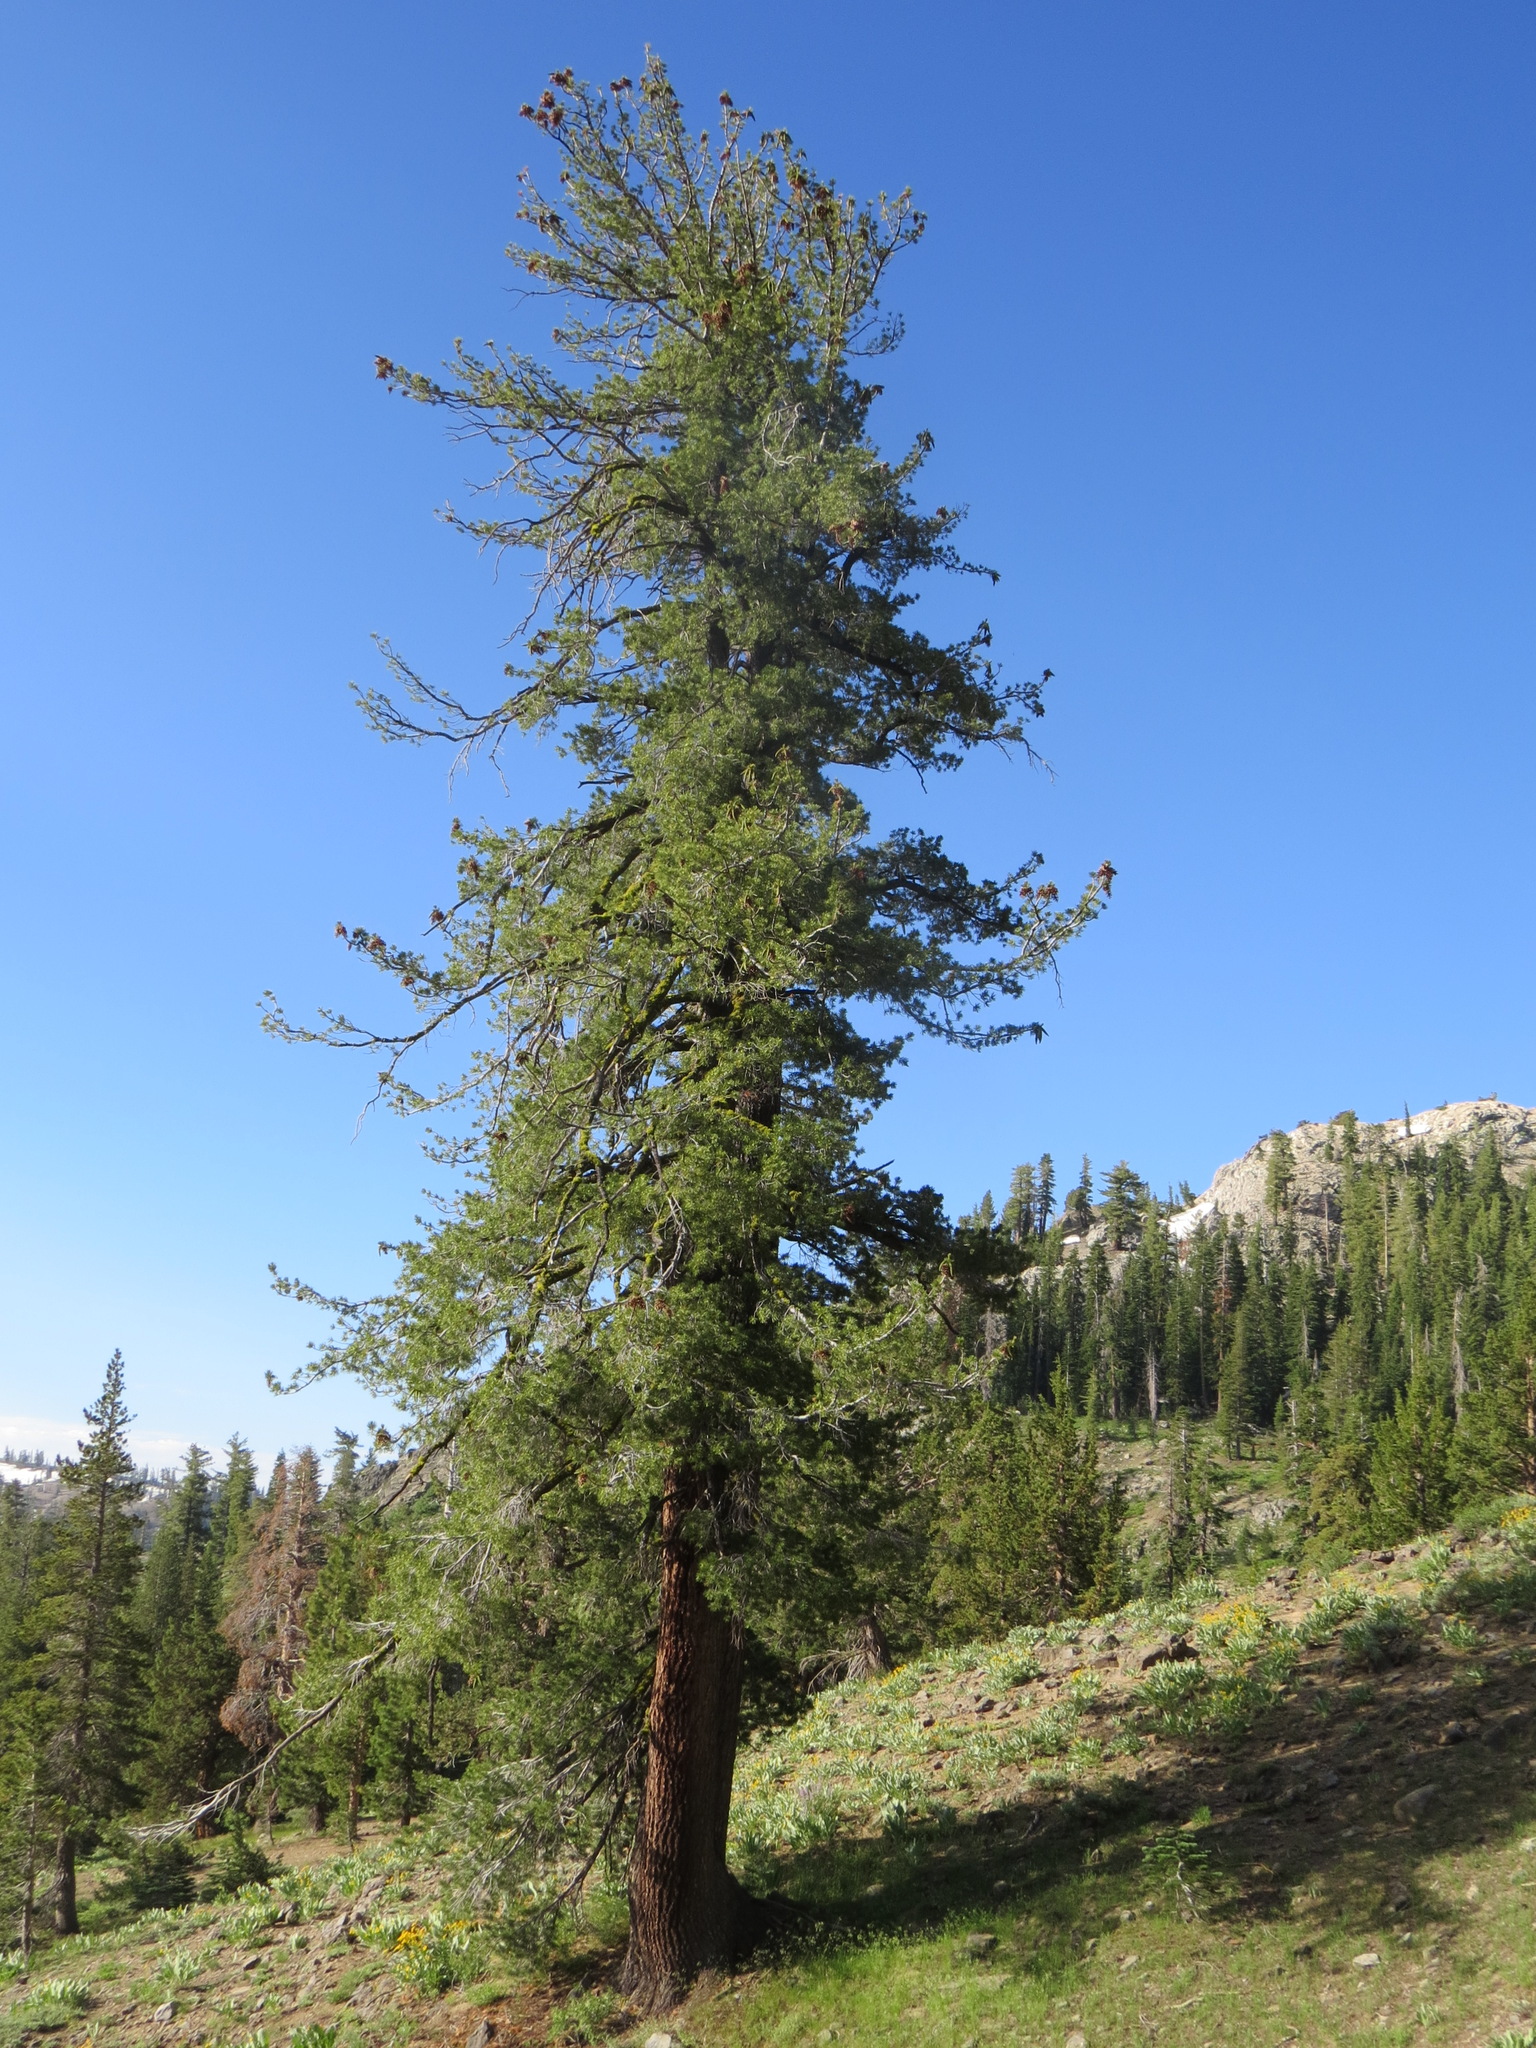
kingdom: Plantae
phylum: Tracheophyta
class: Pinopsida
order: Pinales
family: Pinaceae
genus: Pinus
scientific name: Pinus monticola
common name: Western white pine
